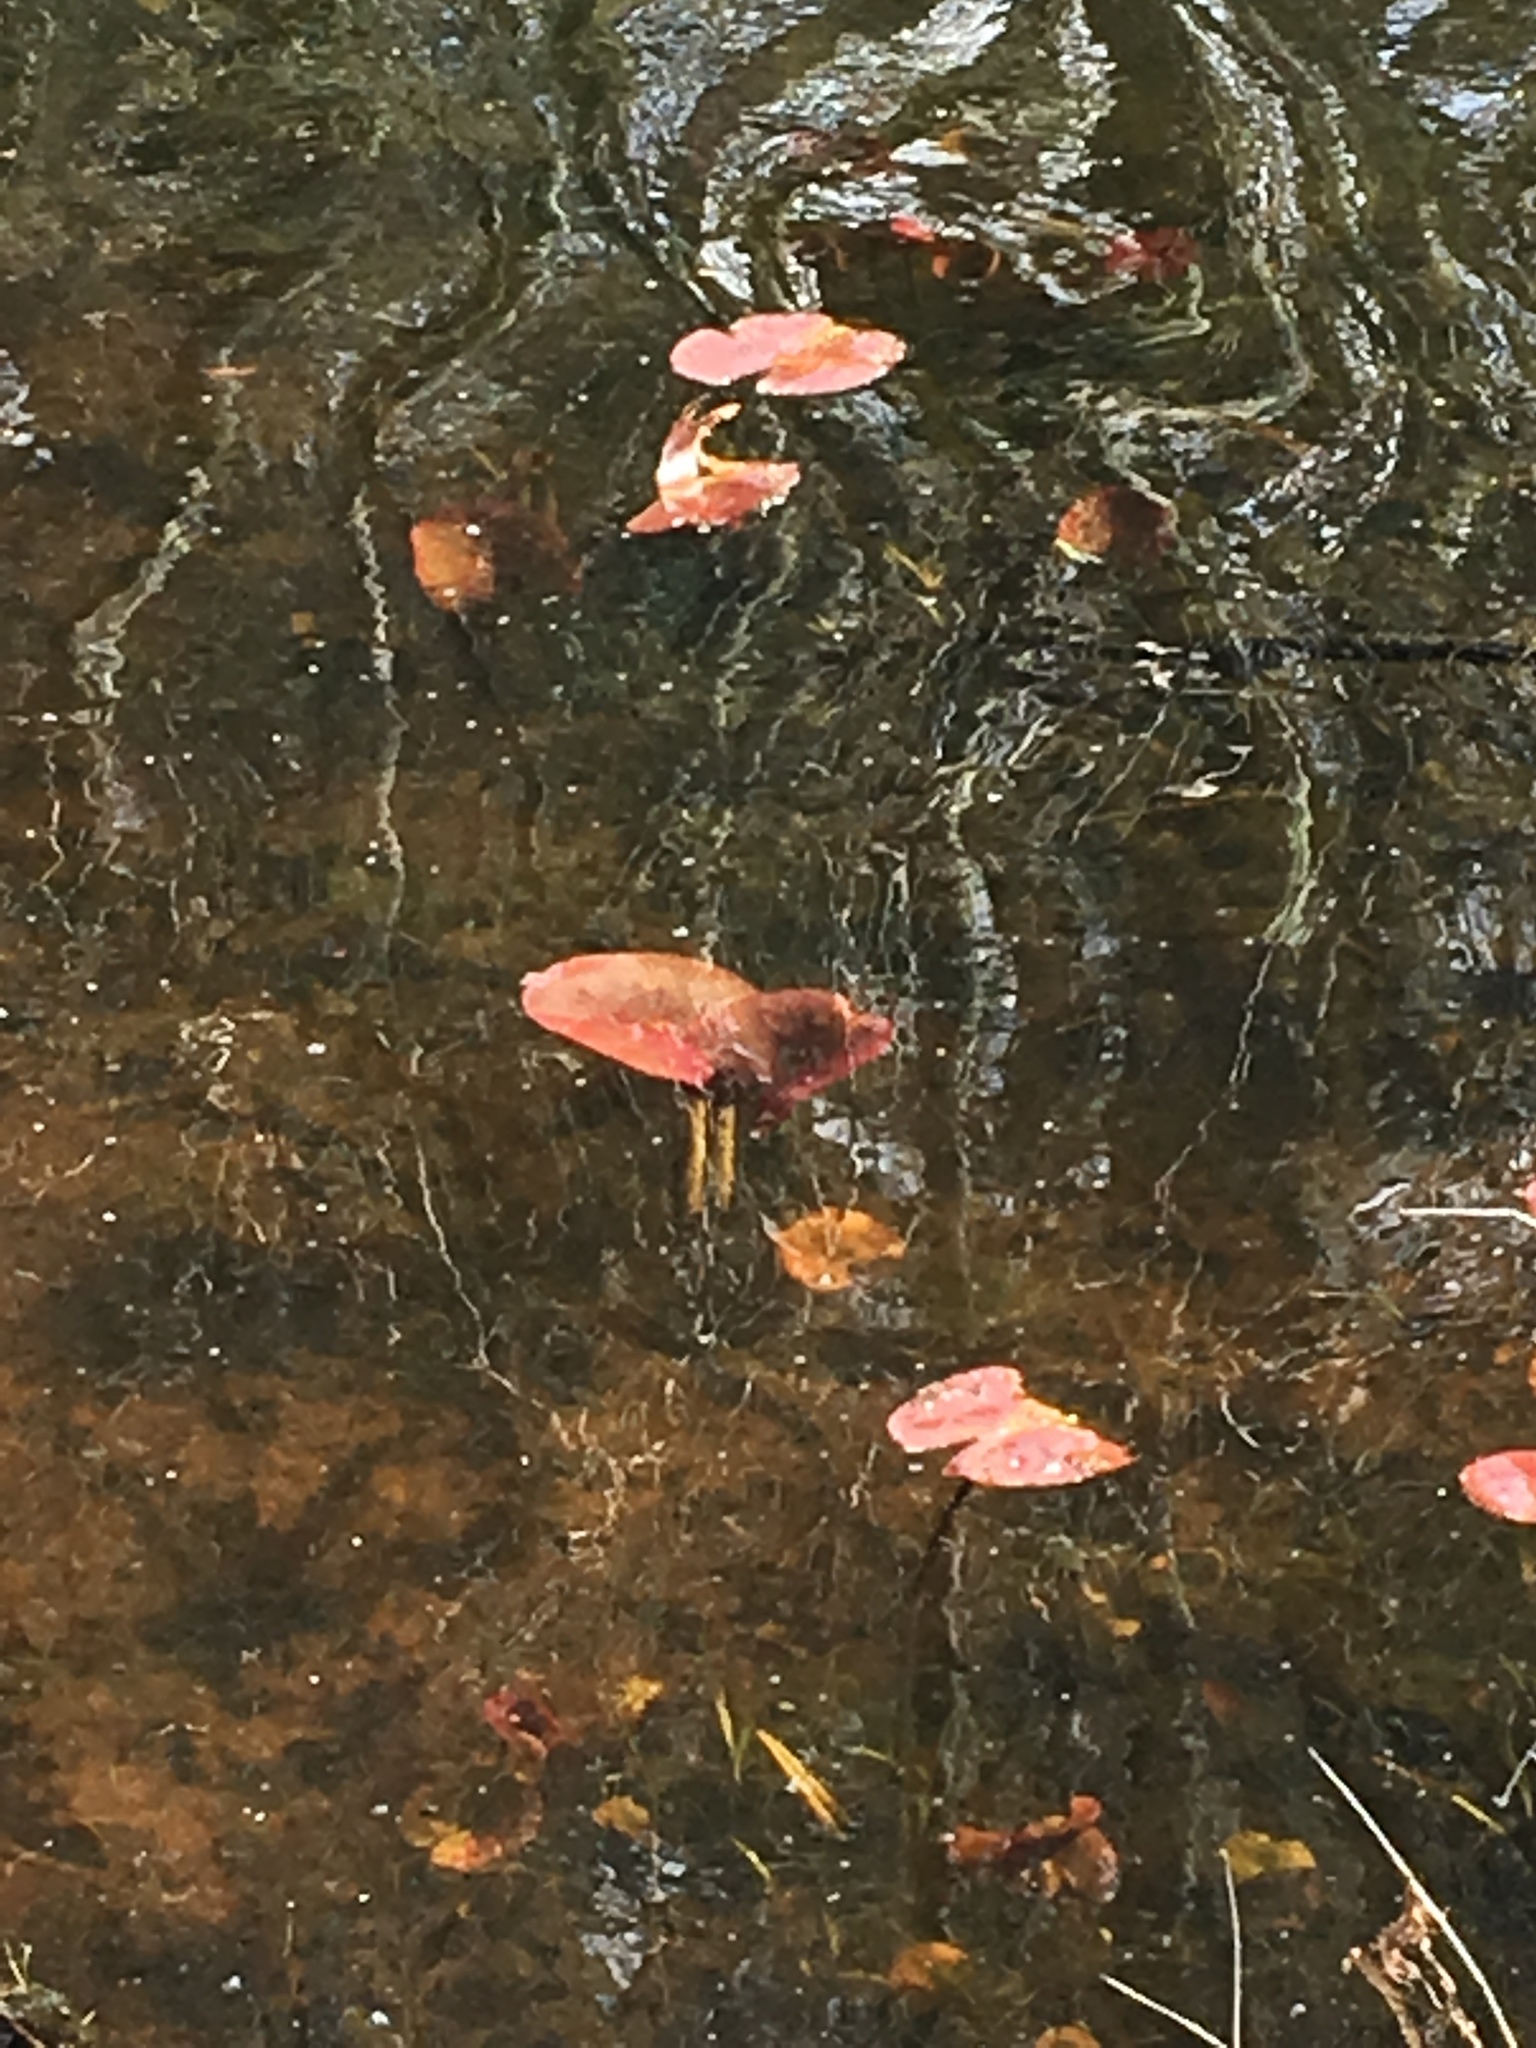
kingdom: Plantae
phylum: Tracheophyta
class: Magnoliopsida
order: Nymphaeales
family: Nymphaeaceae
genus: Nymphaea
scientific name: Nymphaea odorata
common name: Fragrant water-lily
